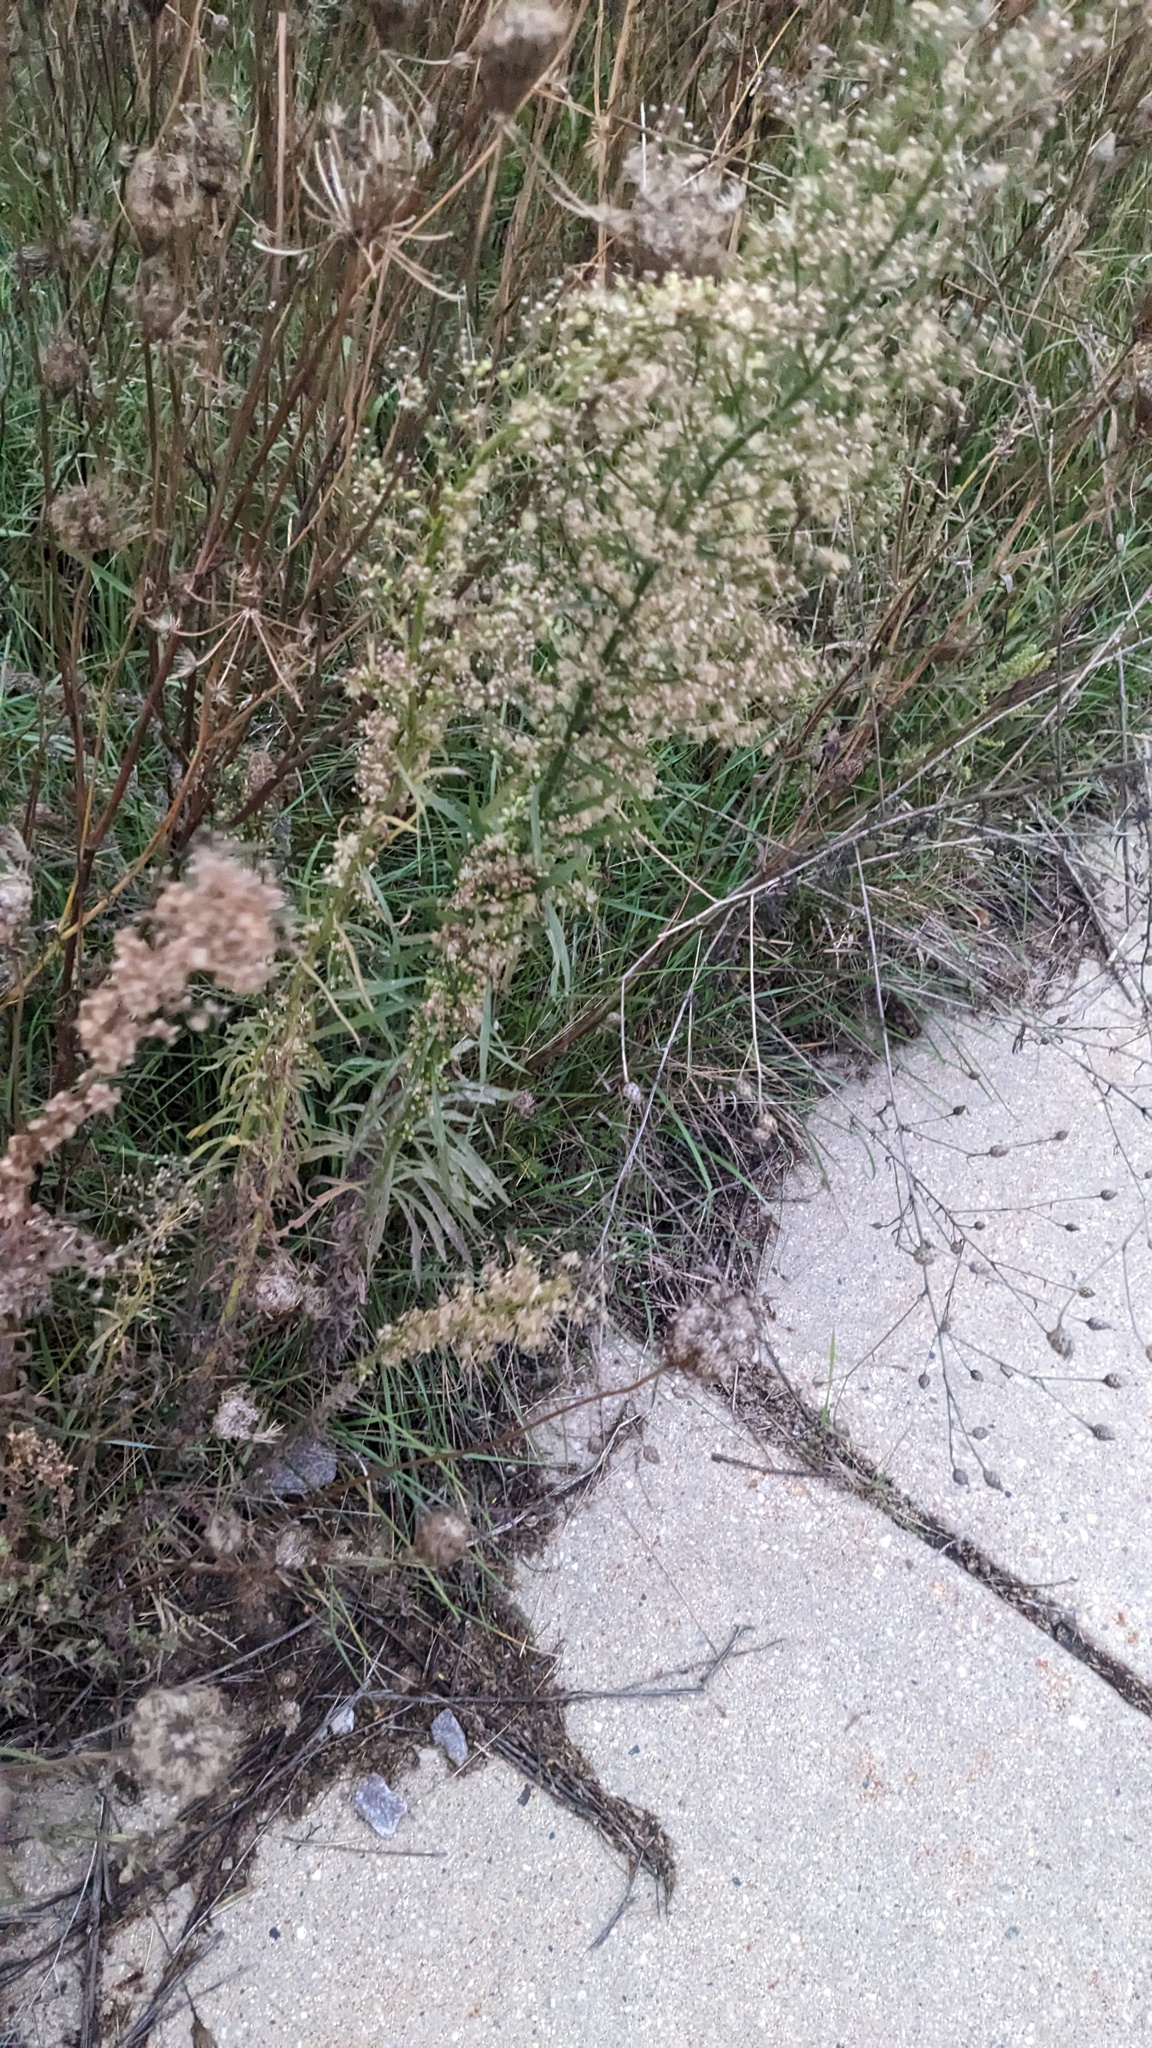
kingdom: Plantae
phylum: Tracheophyta
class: Magnoliopsida
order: Asterales
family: Asteraceae
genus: Erigeron
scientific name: Erigeron canadensis
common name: Canadian fleabane
